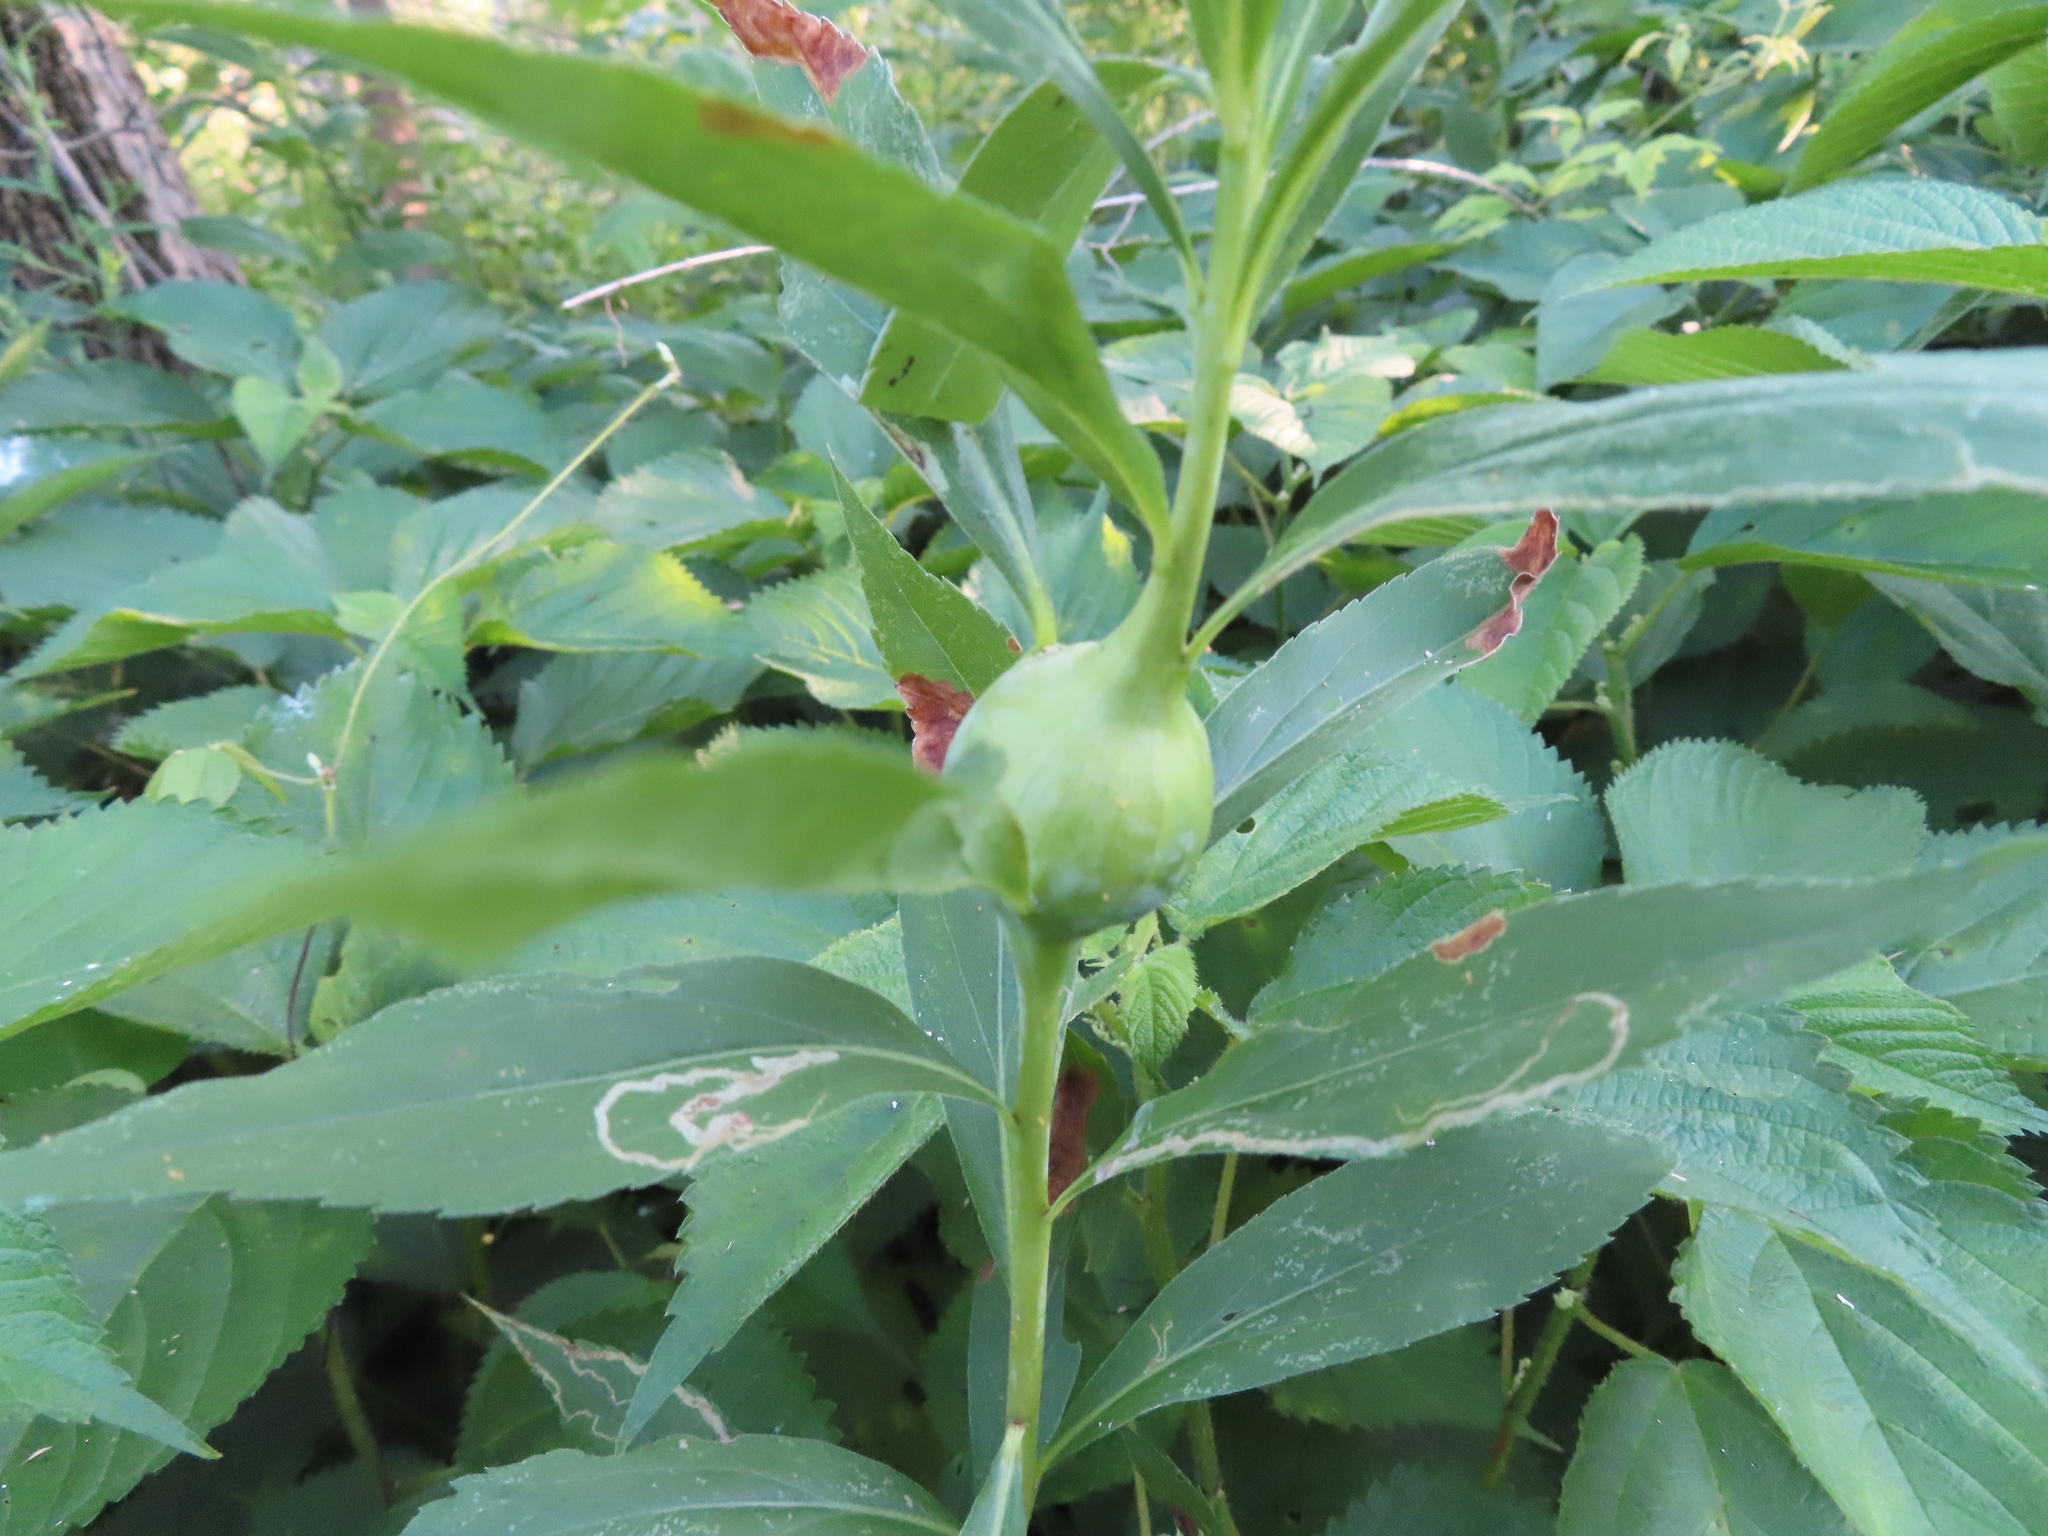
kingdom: Animalia
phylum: Arthropoda
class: Insecta
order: Diptera
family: Tephritidae
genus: Eurosta
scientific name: Eurosta solidaginis
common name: Goldenrod gall fly
